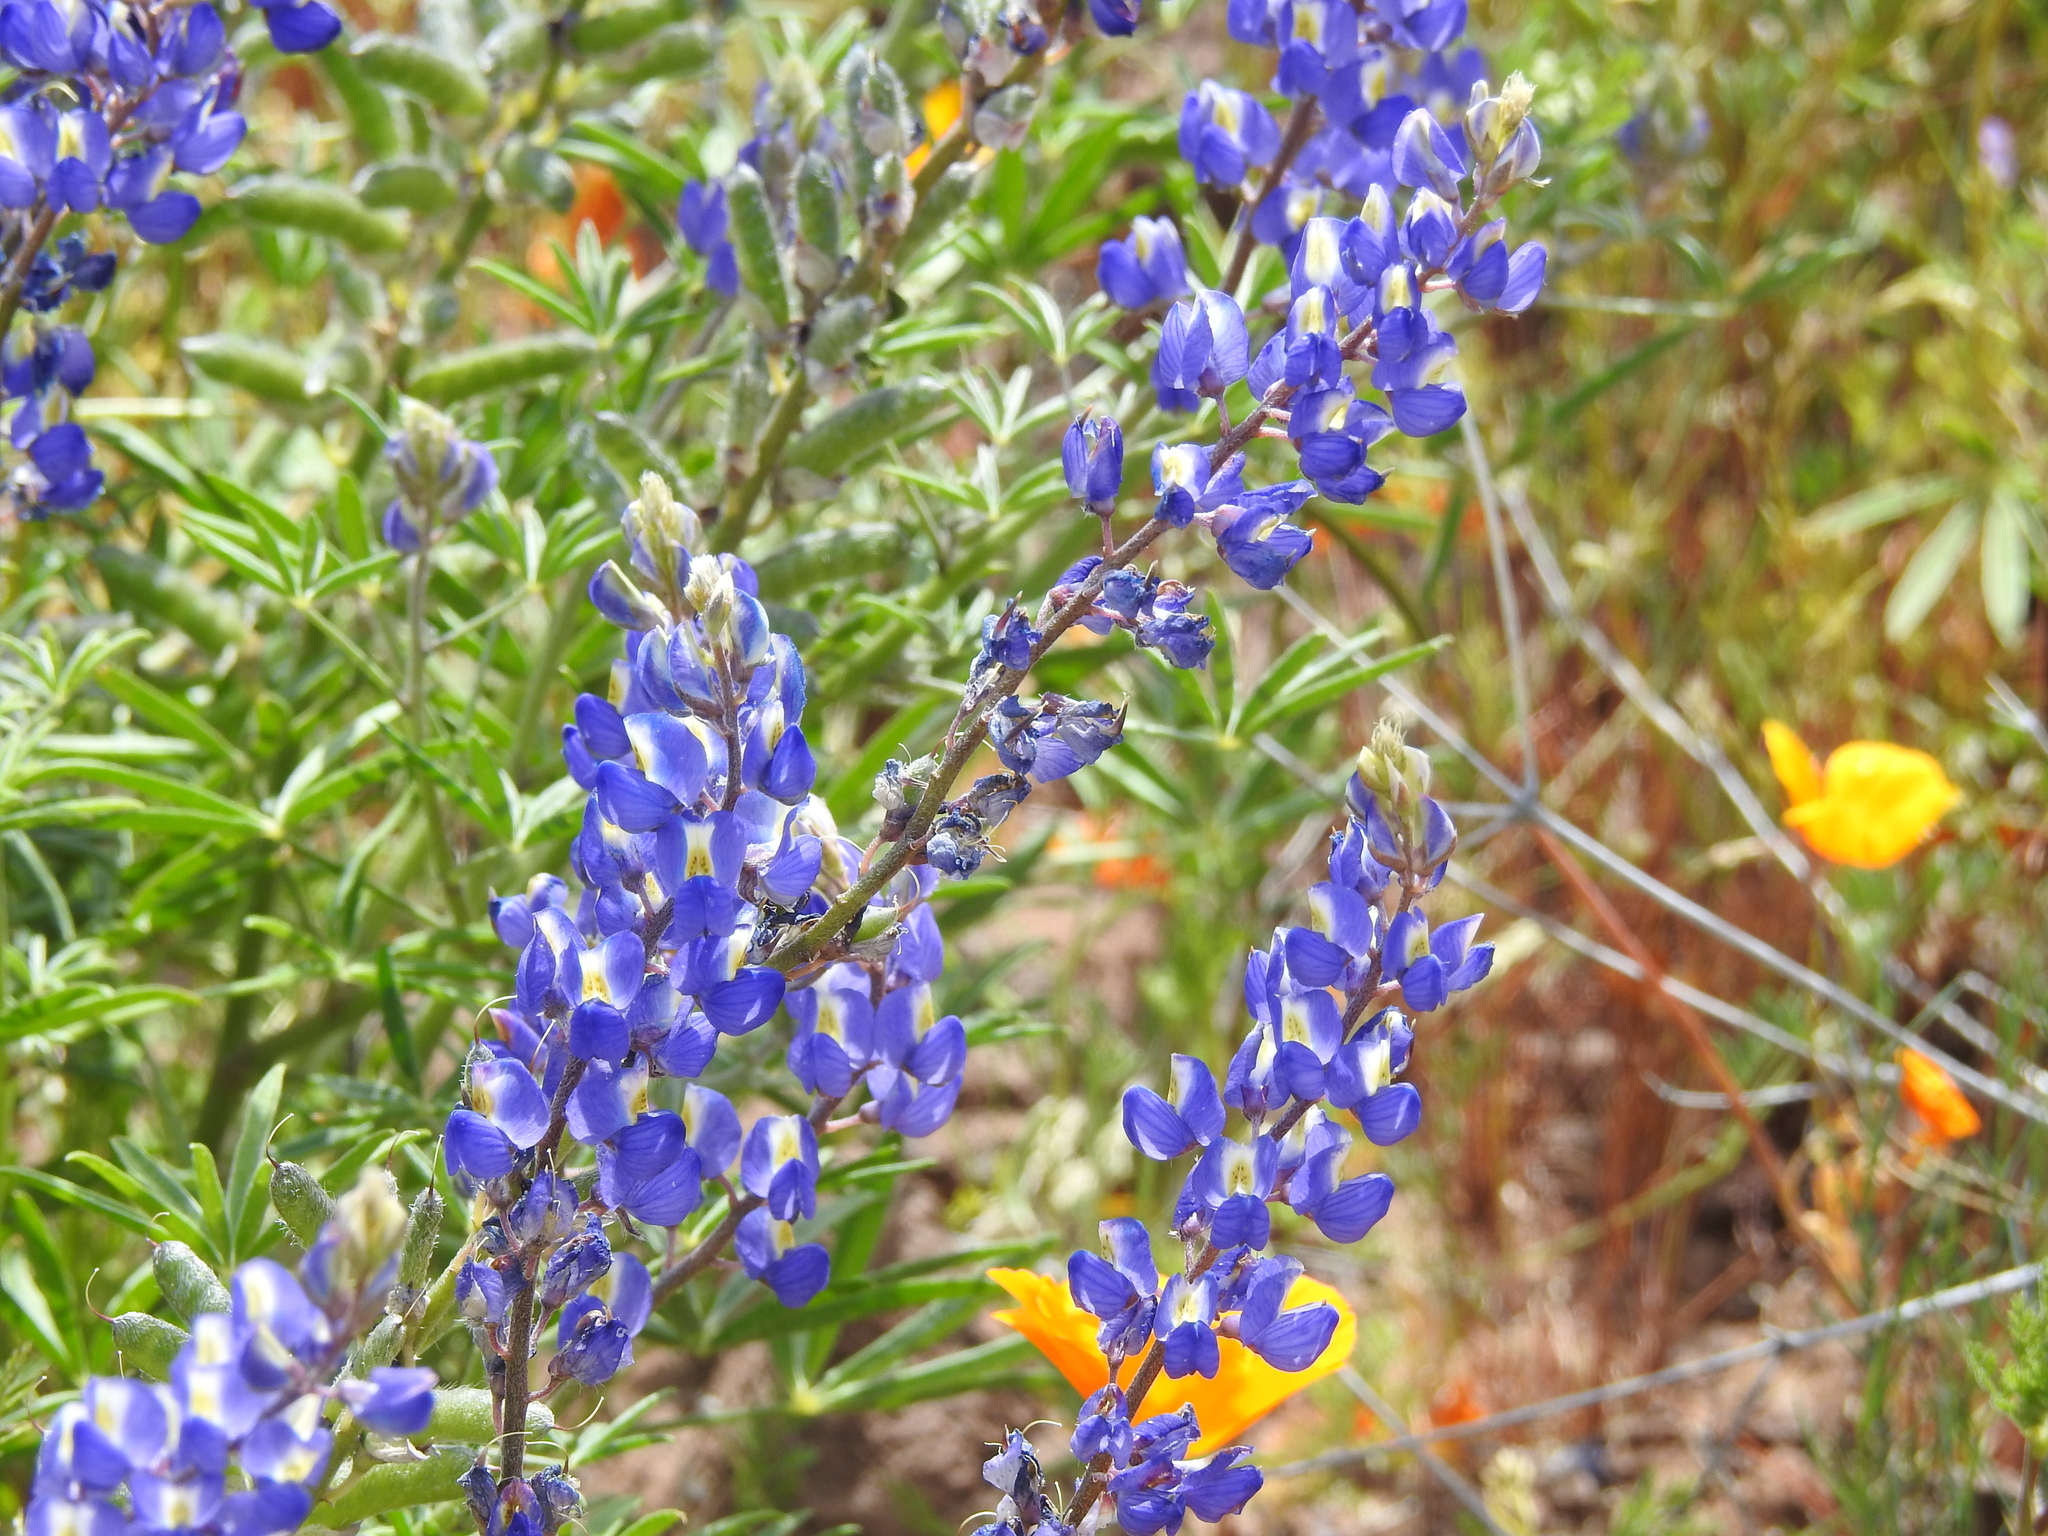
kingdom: Plantae
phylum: Tracheophyta
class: Magnoliopsida
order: Fabales
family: Fabaceae
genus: Lupinus
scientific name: Lupinus sparsiflorus
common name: Coulter's lupine
